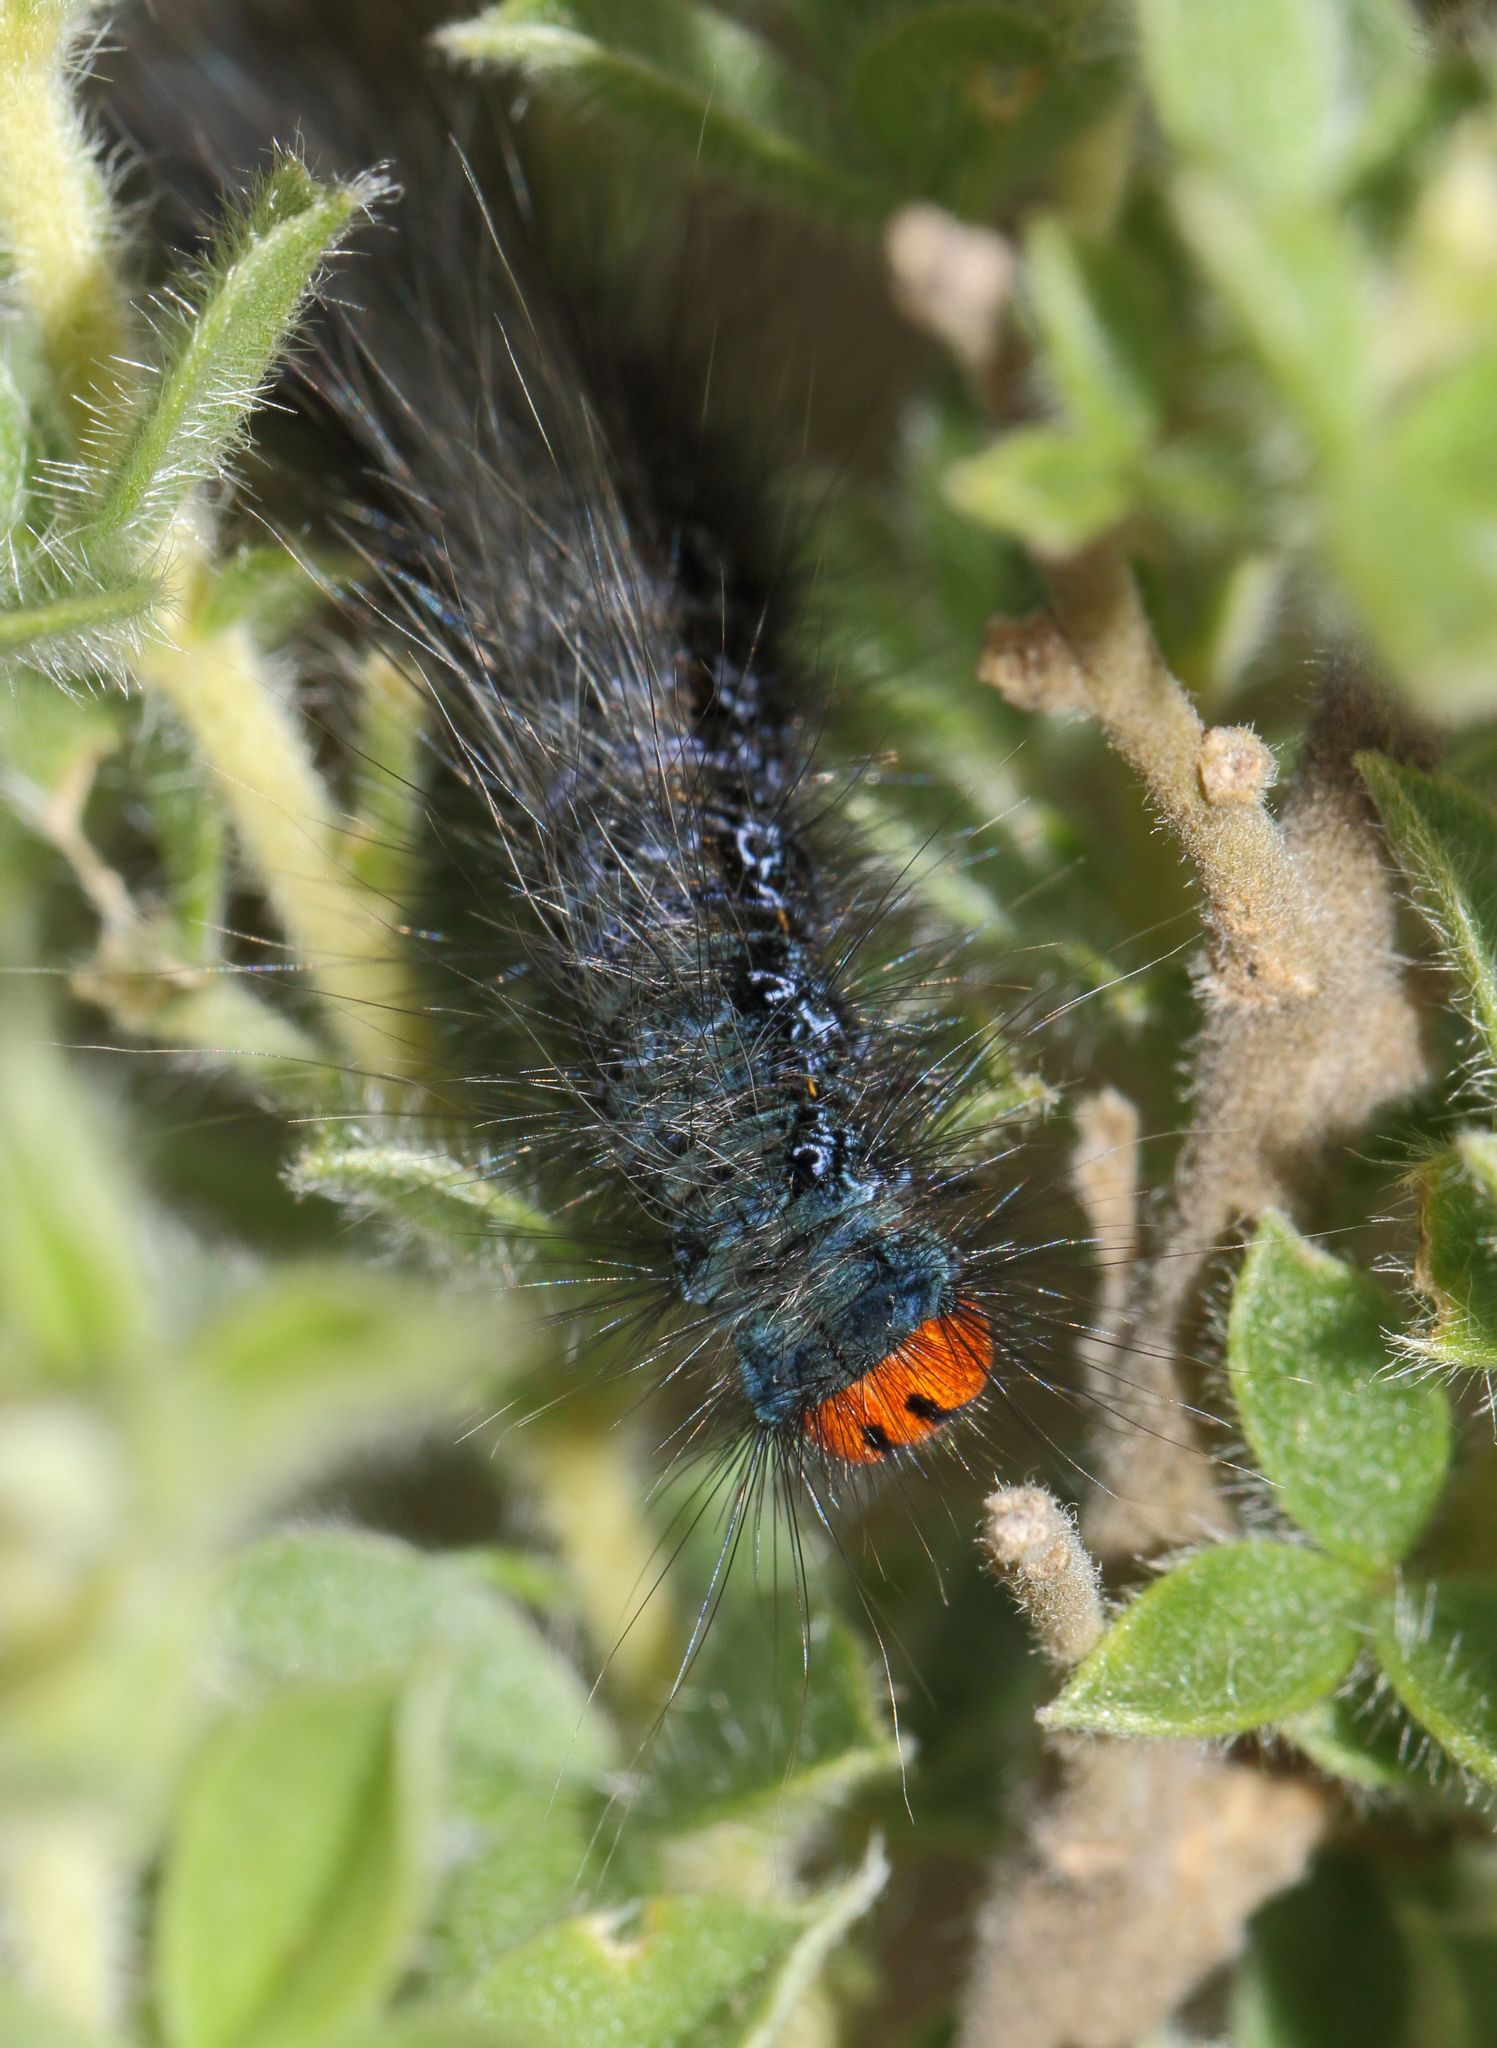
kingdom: Animalia
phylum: Arthropoda
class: Insecta
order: Lepidoptera
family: Lasiocampidae
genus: Mesocelis
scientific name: Mesocelis monticola
